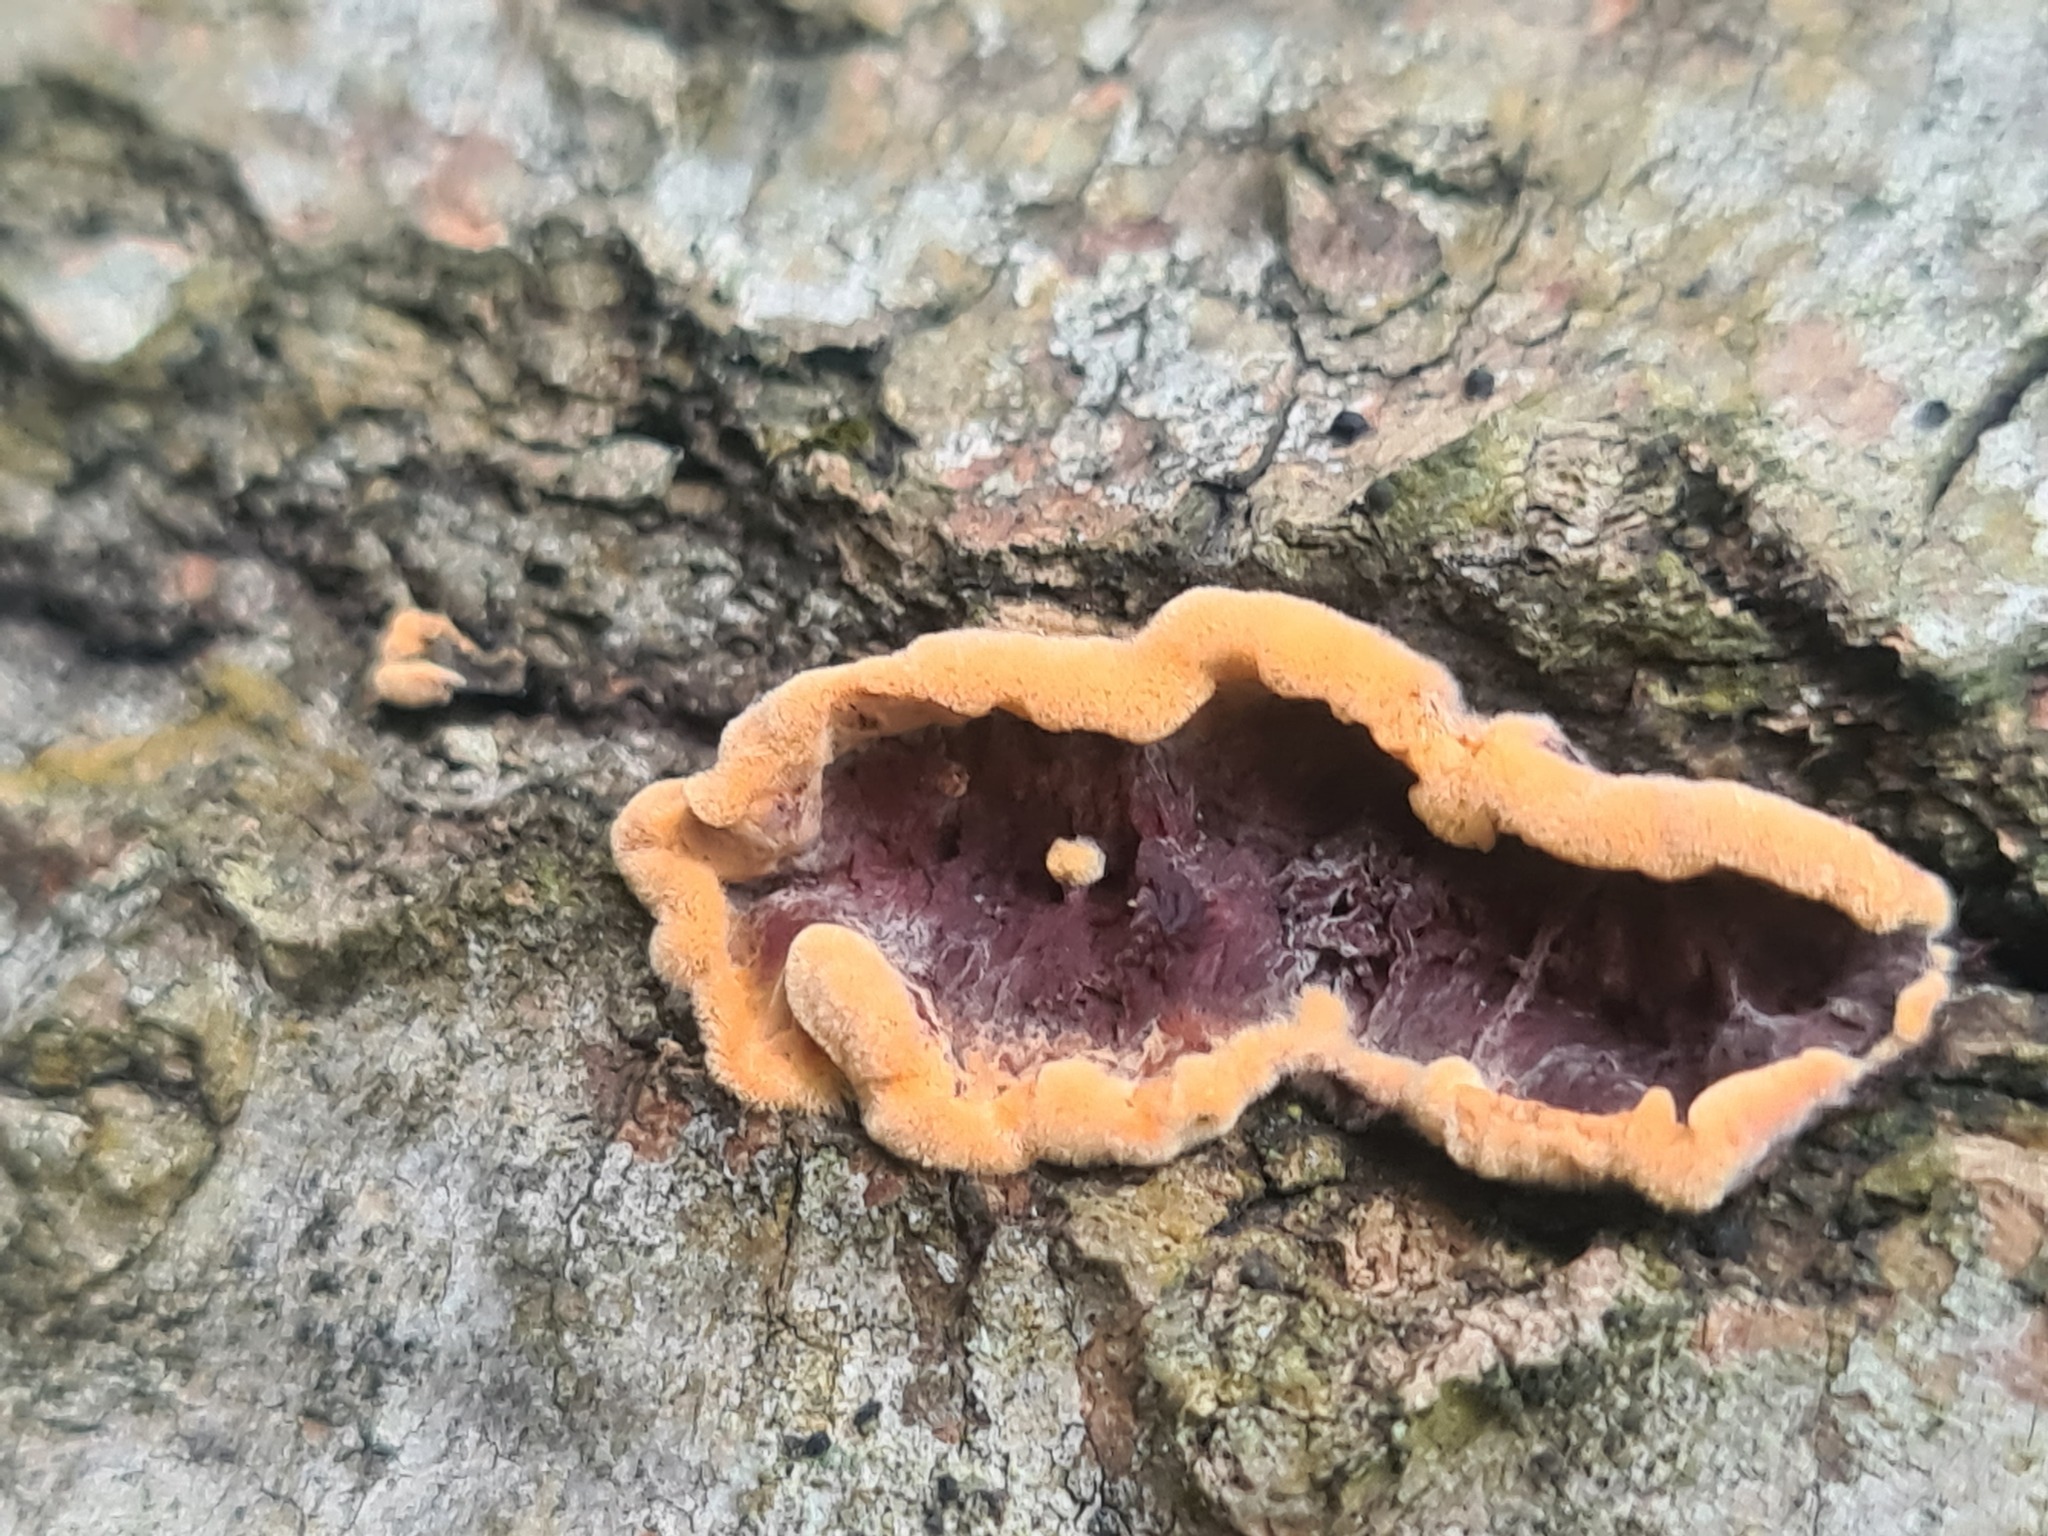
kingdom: Fungi
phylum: Basidiomycota
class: Agaricomycetes
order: Corticiales
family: Punctulariaceae
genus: Punctularia
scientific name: Punctularia strigosozonata
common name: White-rot fungus
